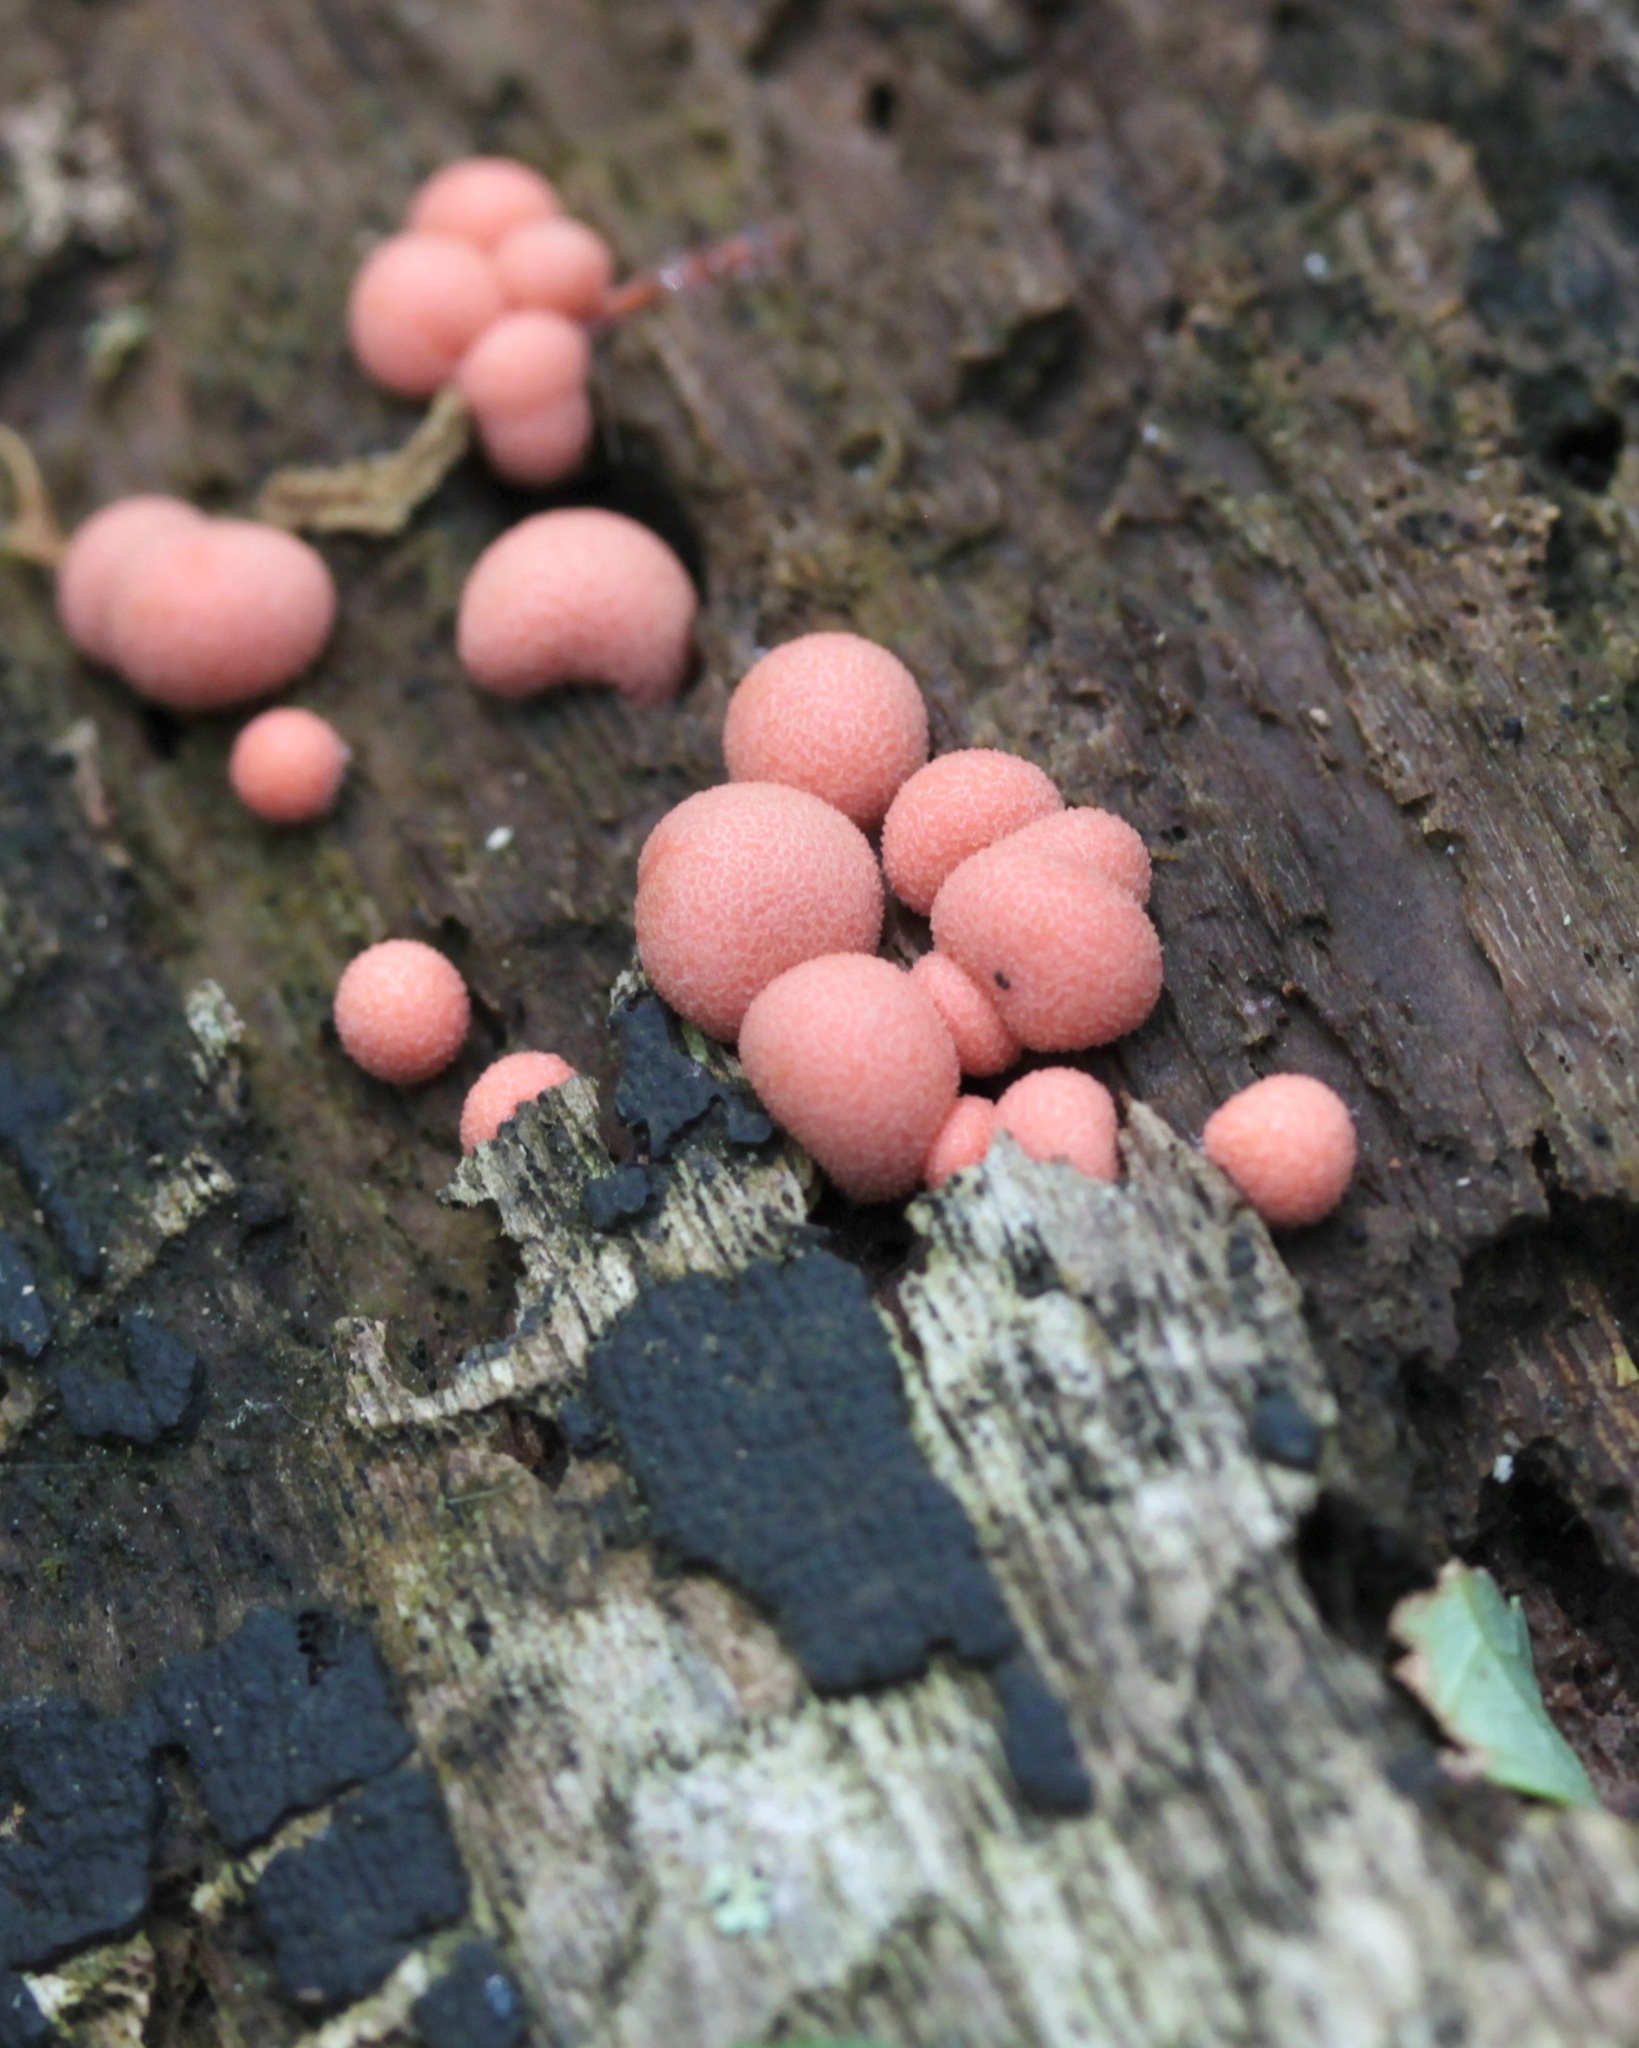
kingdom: Protozoa
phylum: Mycetozoa
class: Myxomycetes
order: Cribrariales
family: Tubiferaceae
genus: Lycogala
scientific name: Lycogala epidendrum
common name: Wolf's milk
